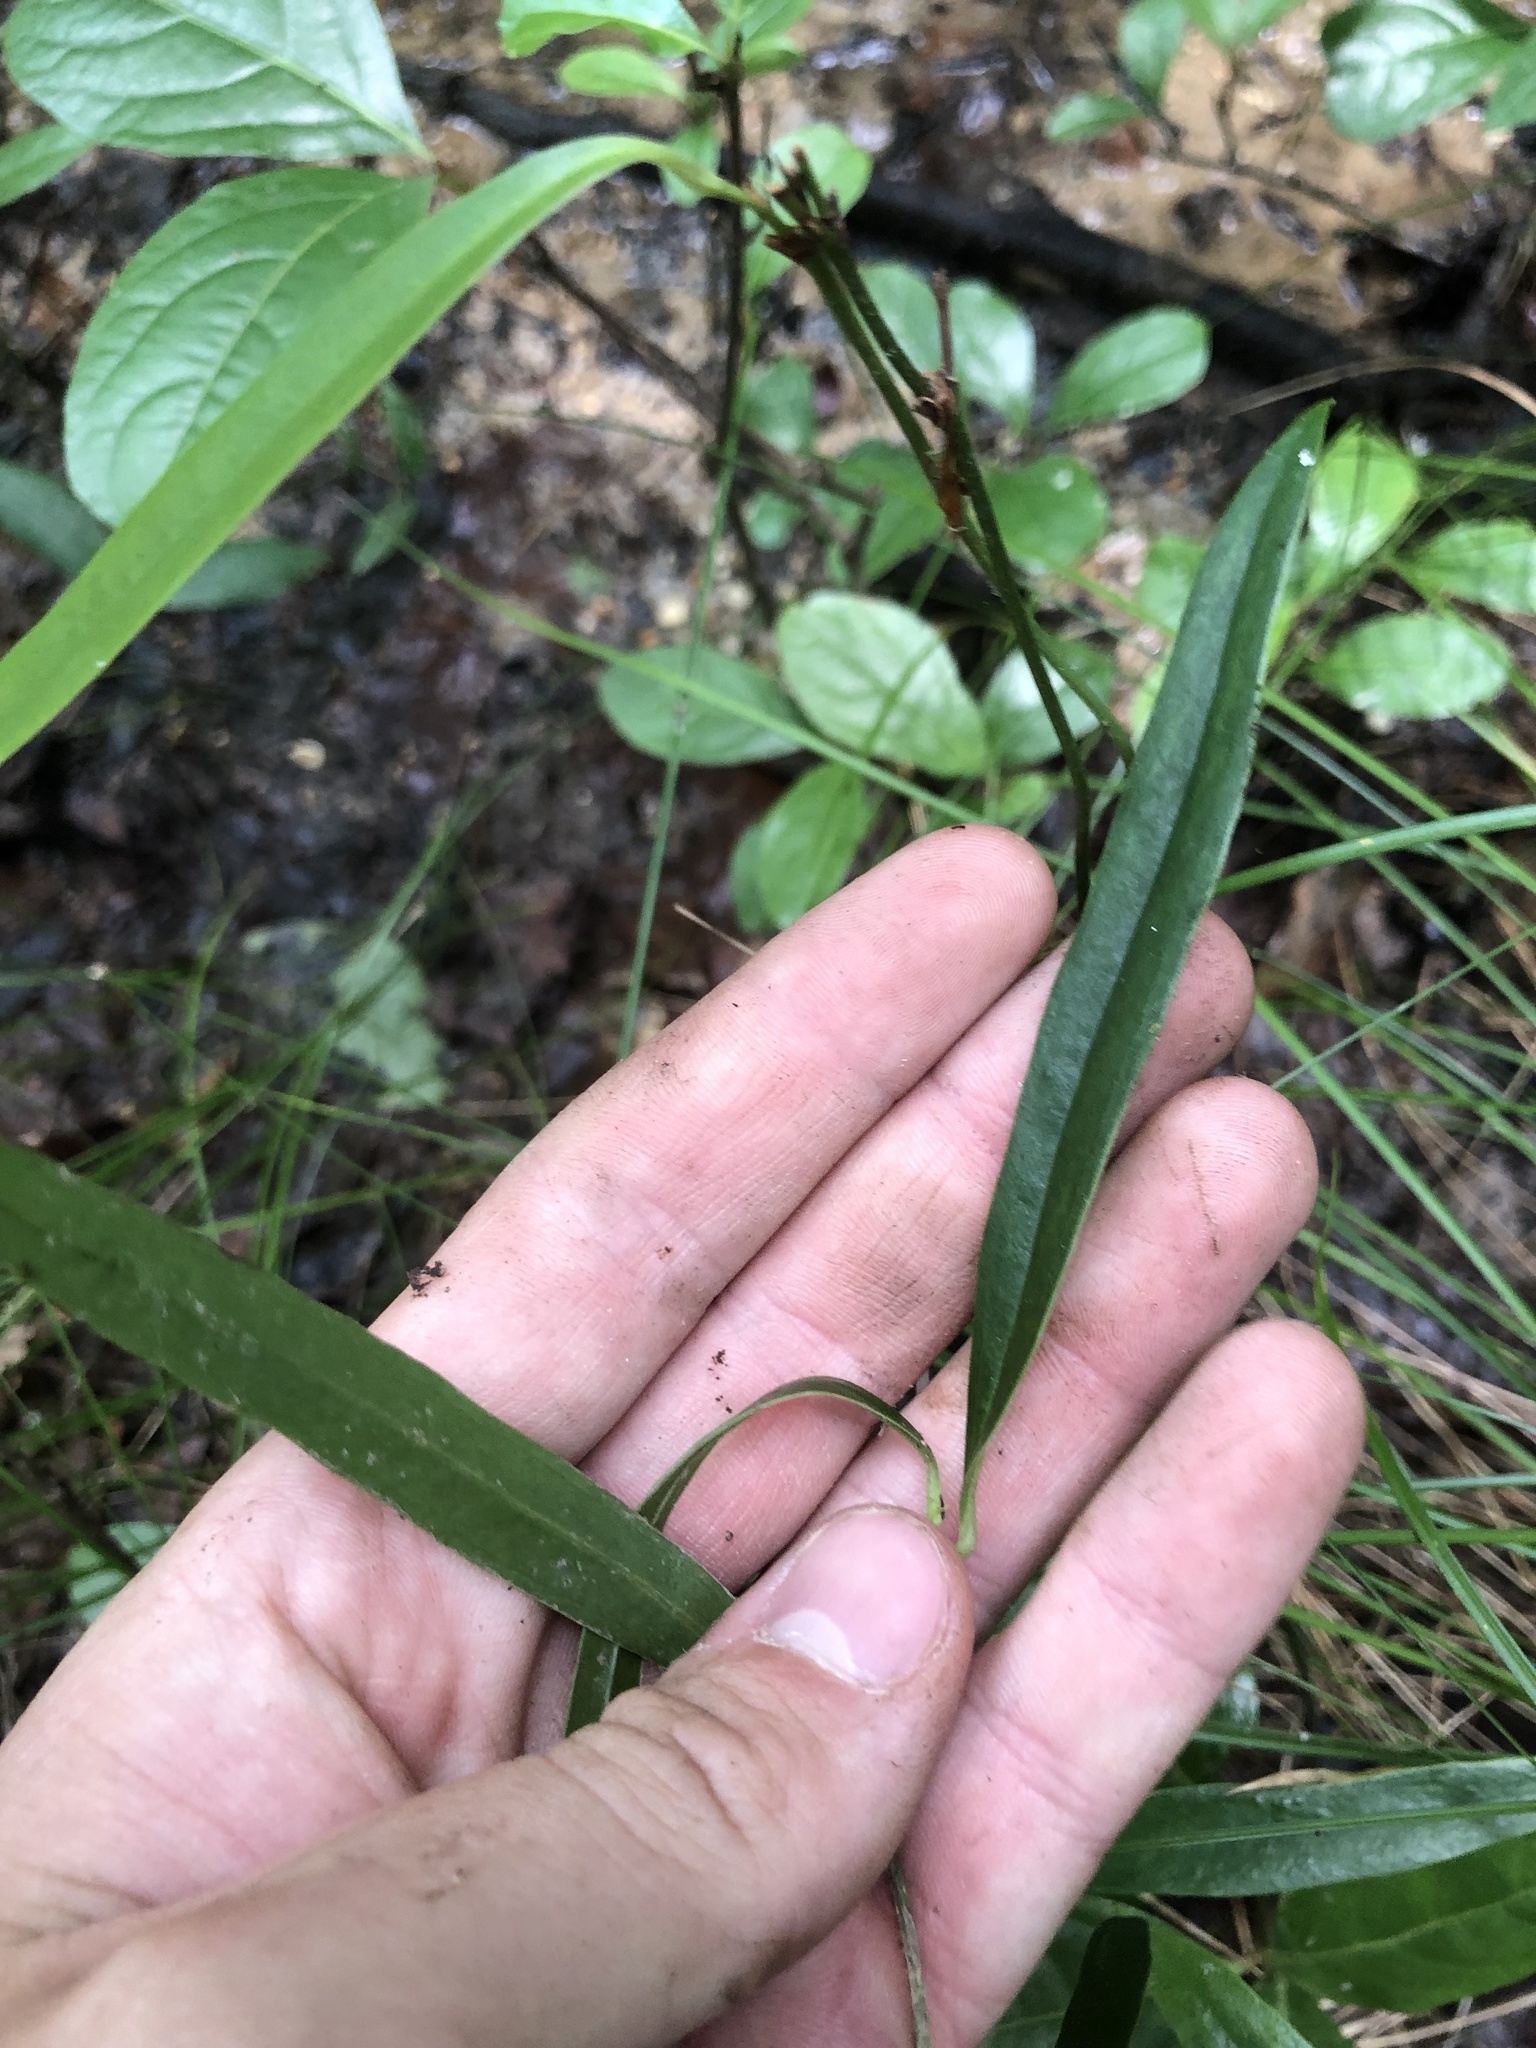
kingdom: Plantae
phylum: Tracheophyta
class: Liliopsida
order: Liliales
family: Smilacaceae
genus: Smilax
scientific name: Smilax laurifolia
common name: Bamboovine
